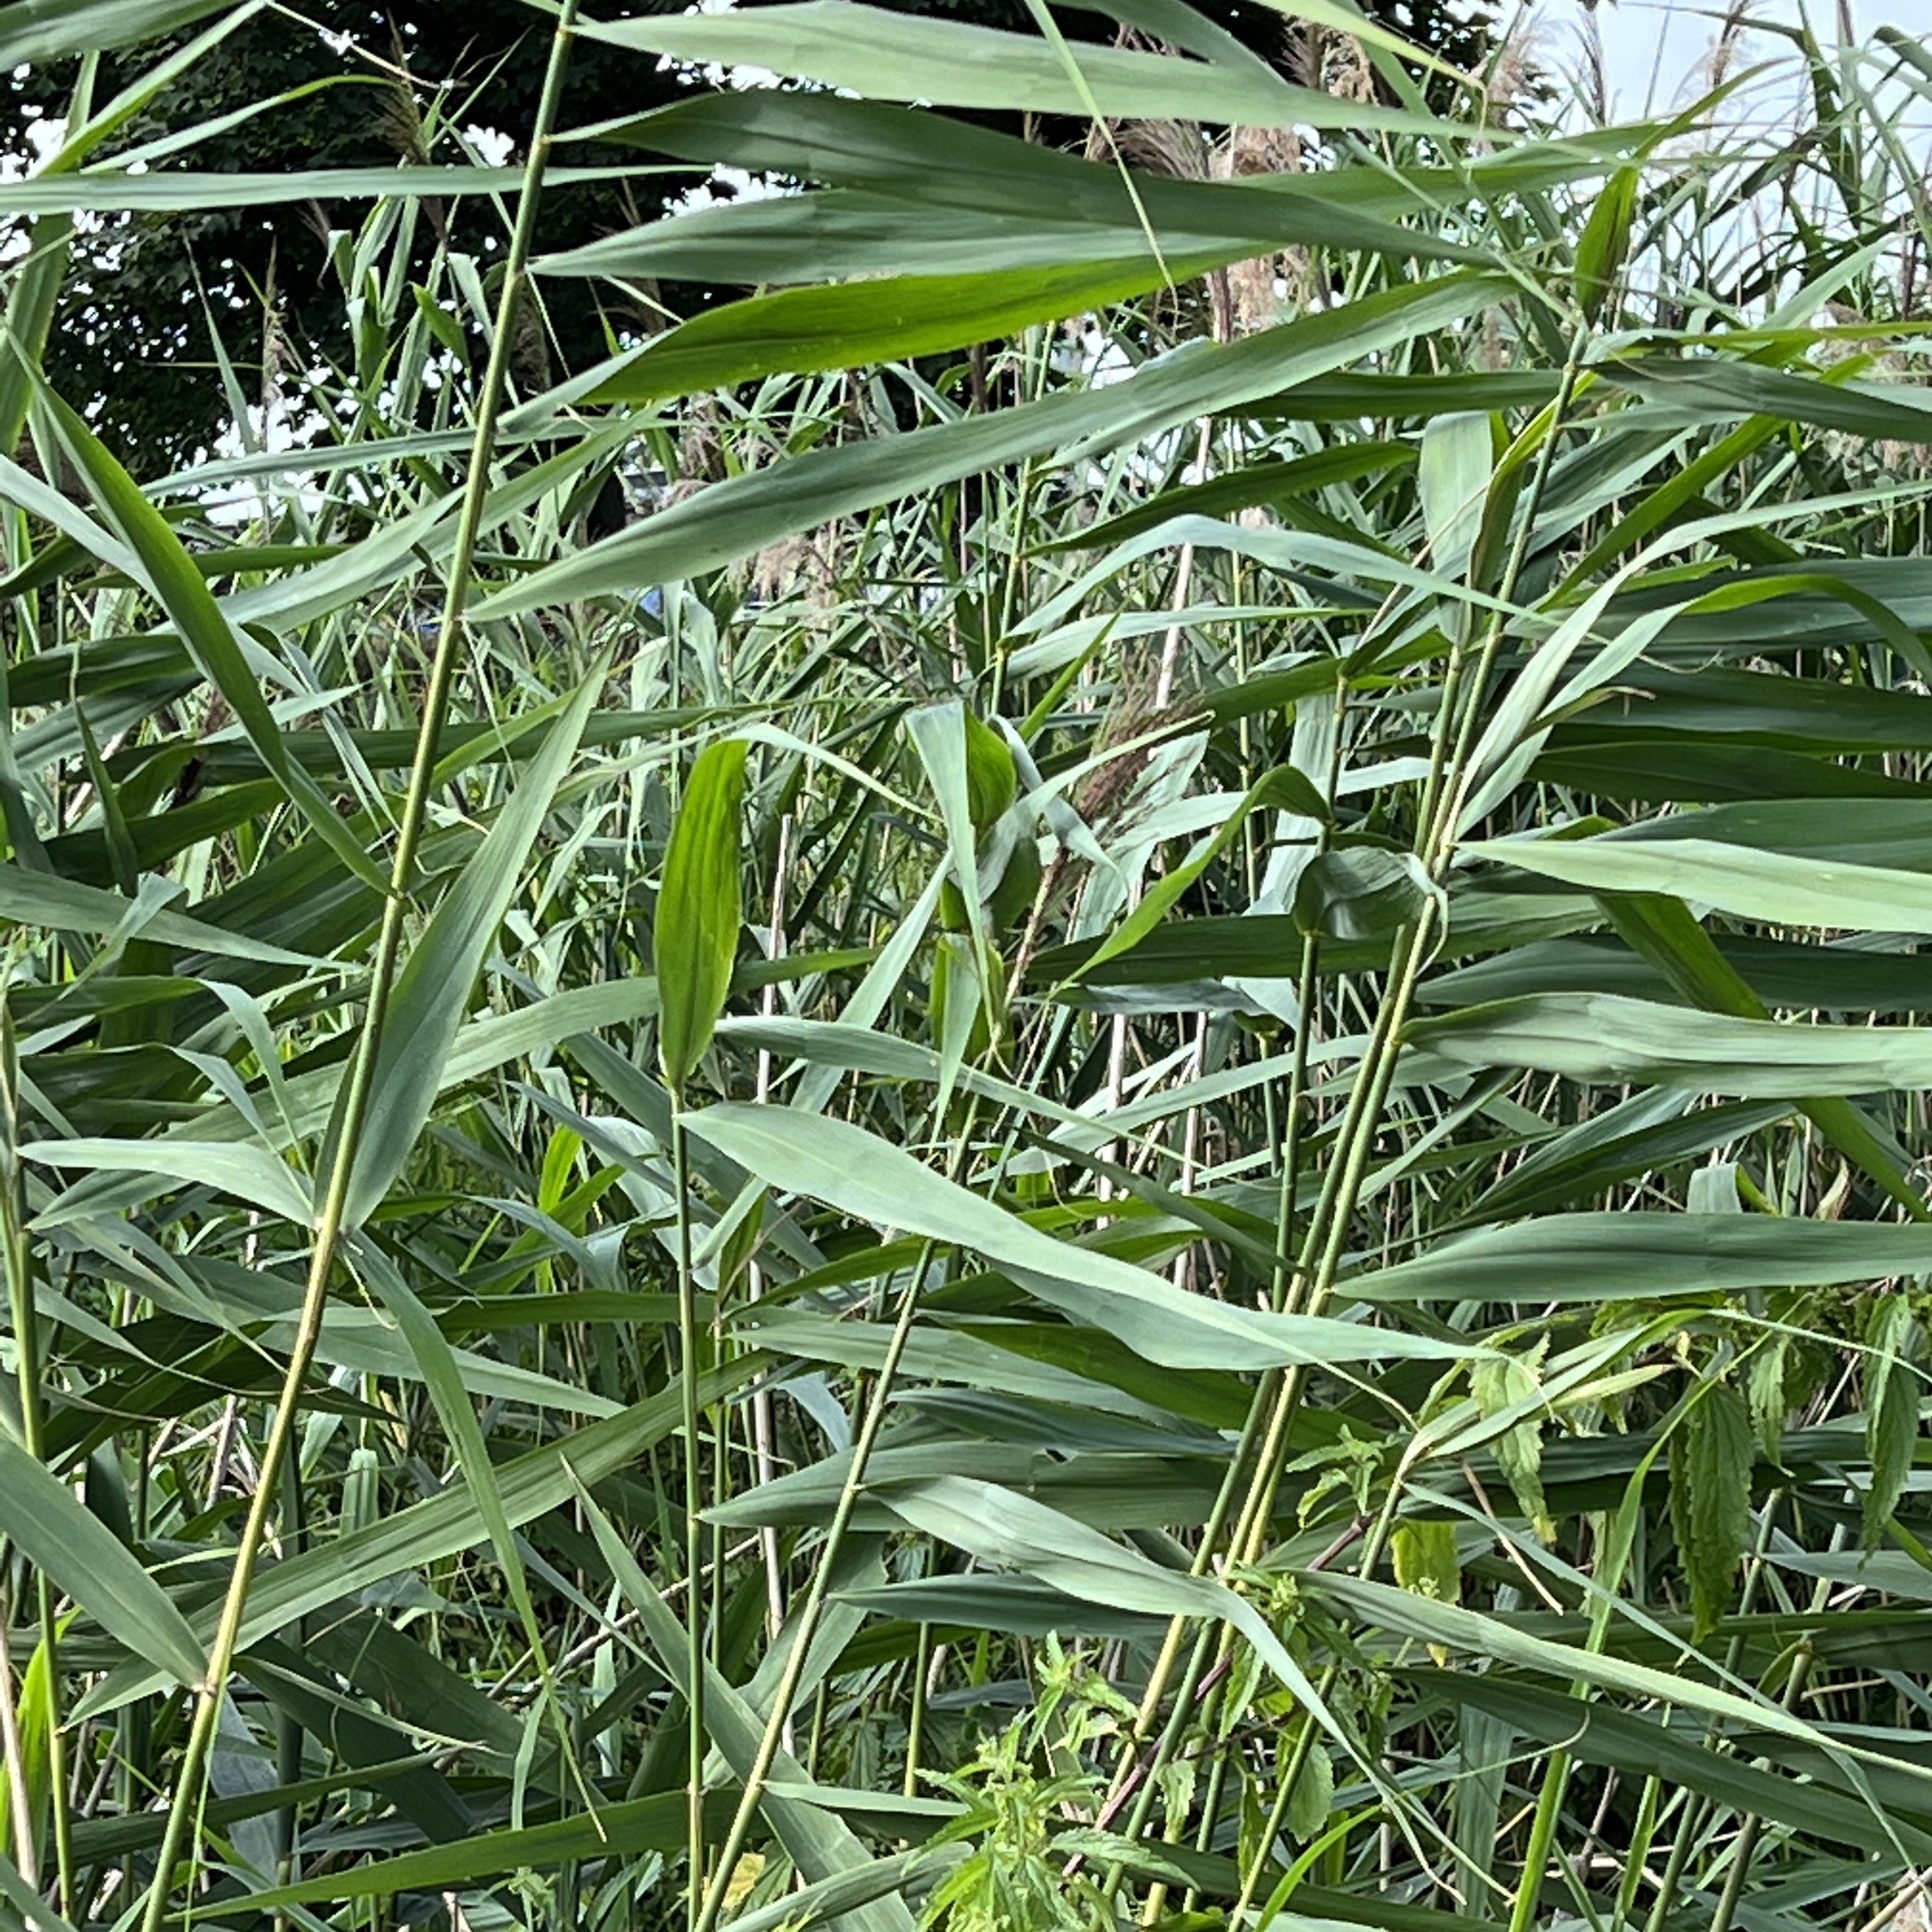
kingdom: Plantae
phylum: Tracheophyta
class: Liliopsida
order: Poales
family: Poaceae
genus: Phragmites
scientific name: Phragmites australis
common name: Common reed
